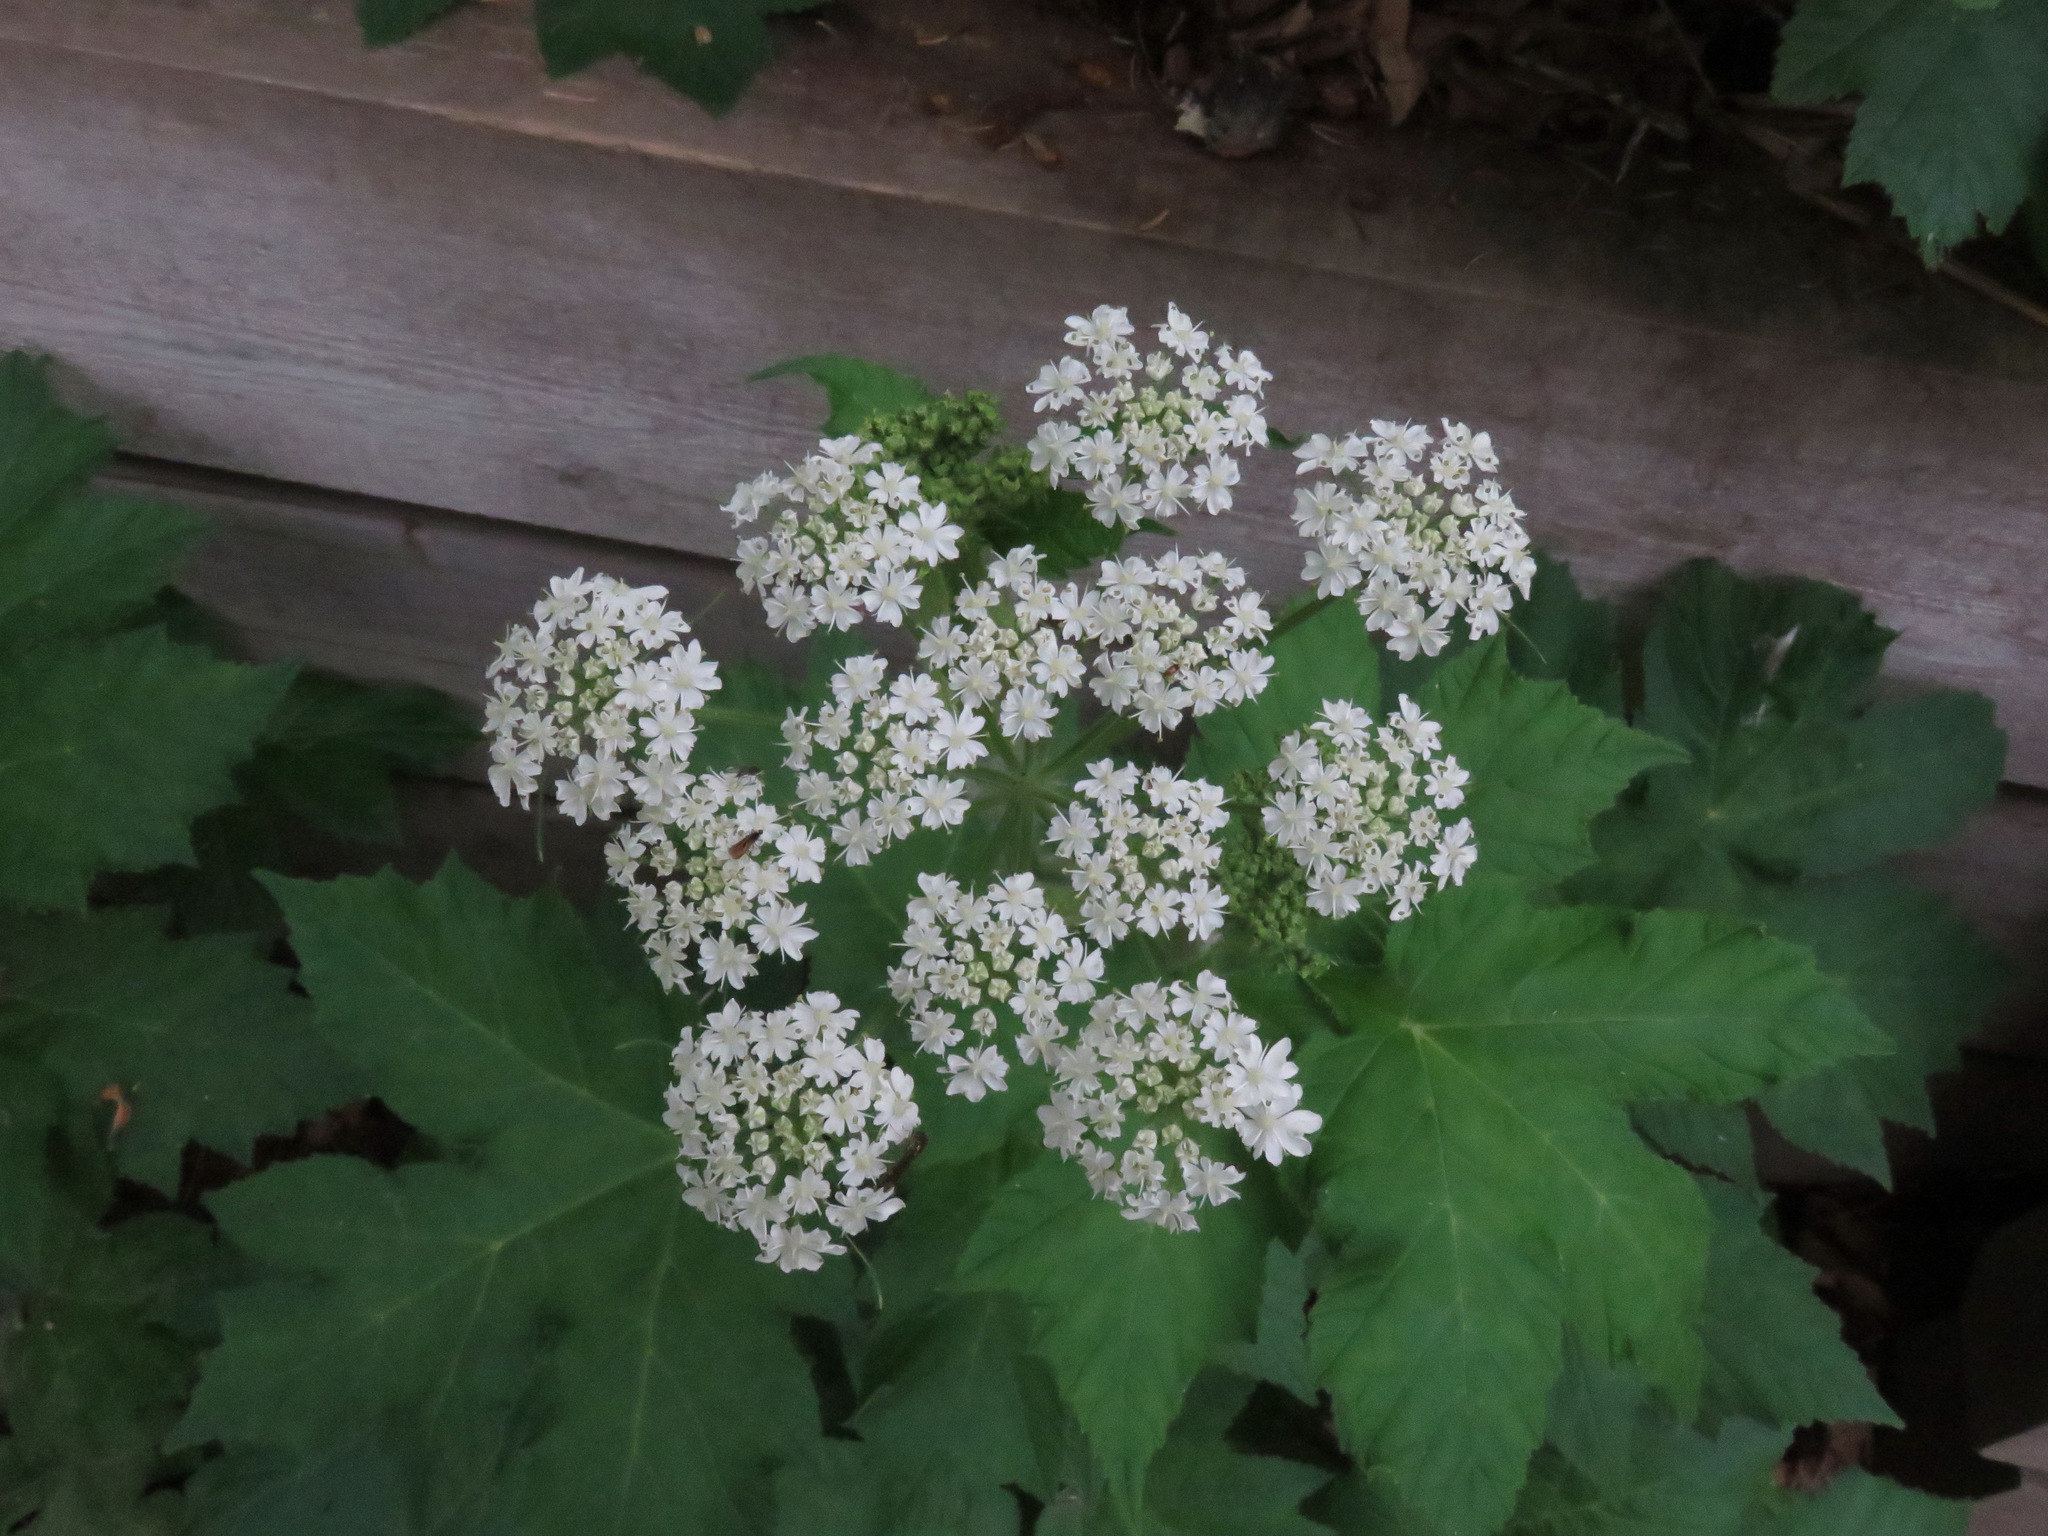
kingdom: Plantae
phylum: Tracheophyta
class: Magnoliopsida
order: Apiales
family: Apiaceae
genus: Heracleum
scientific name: Heracleum maximum
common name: American cow parsnip
